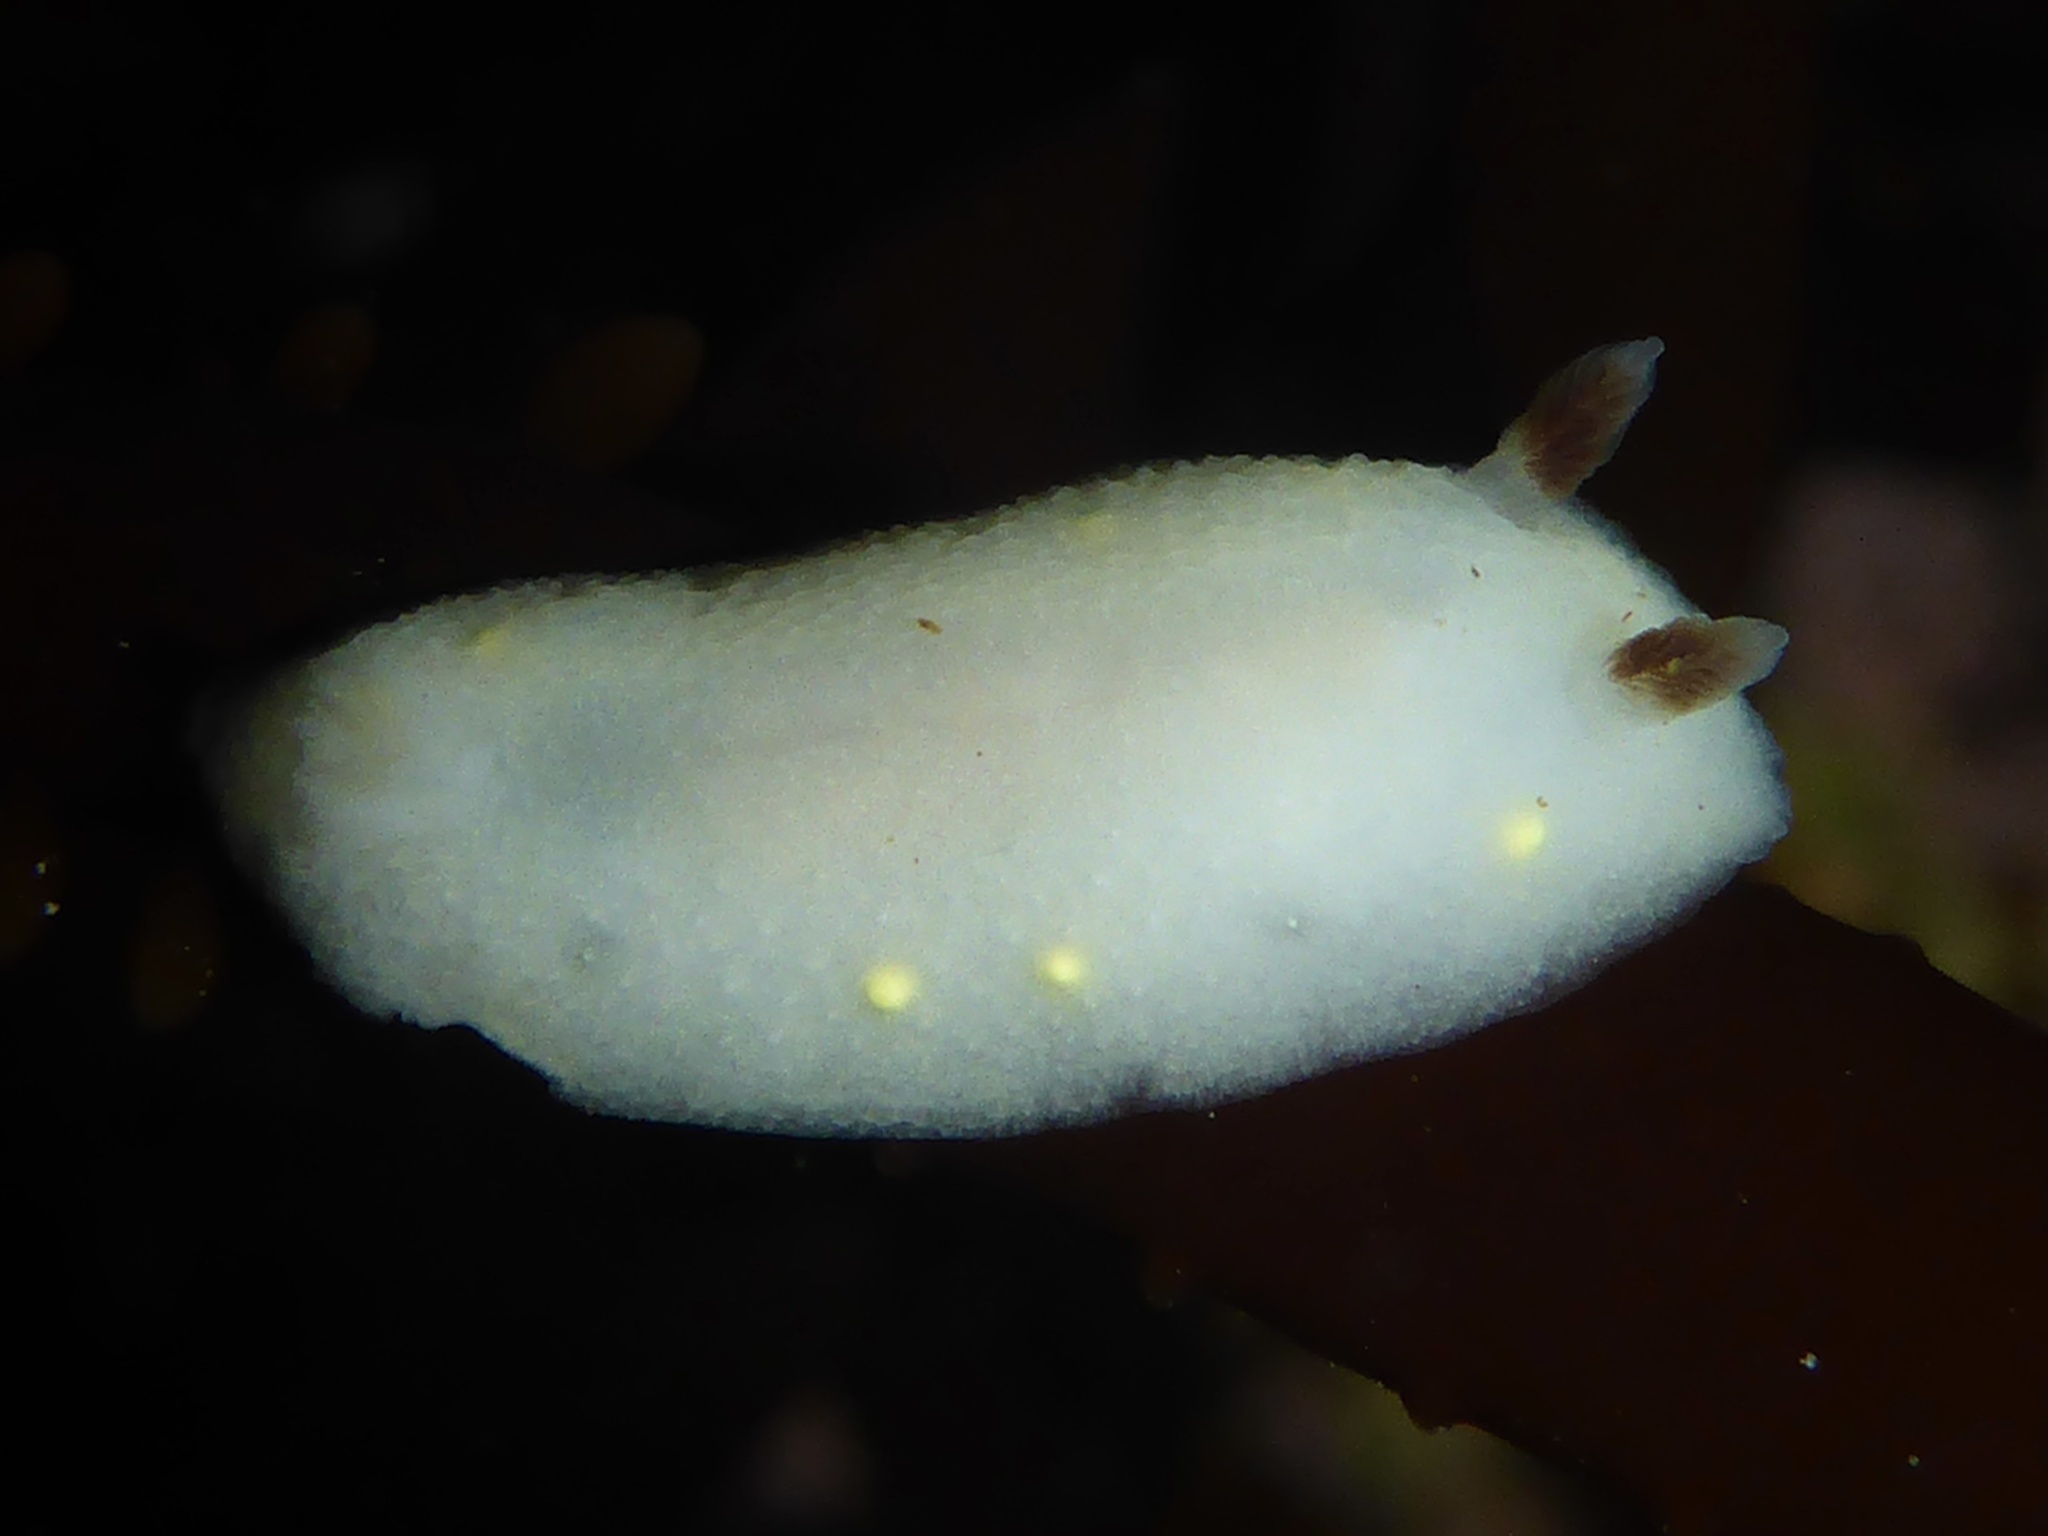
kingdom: Animalia
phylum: Mollusca
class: Gastropoda
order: Nudibranchia
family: Cadlinidae
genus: Cadlina
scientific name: Cadlina flavomaculata
